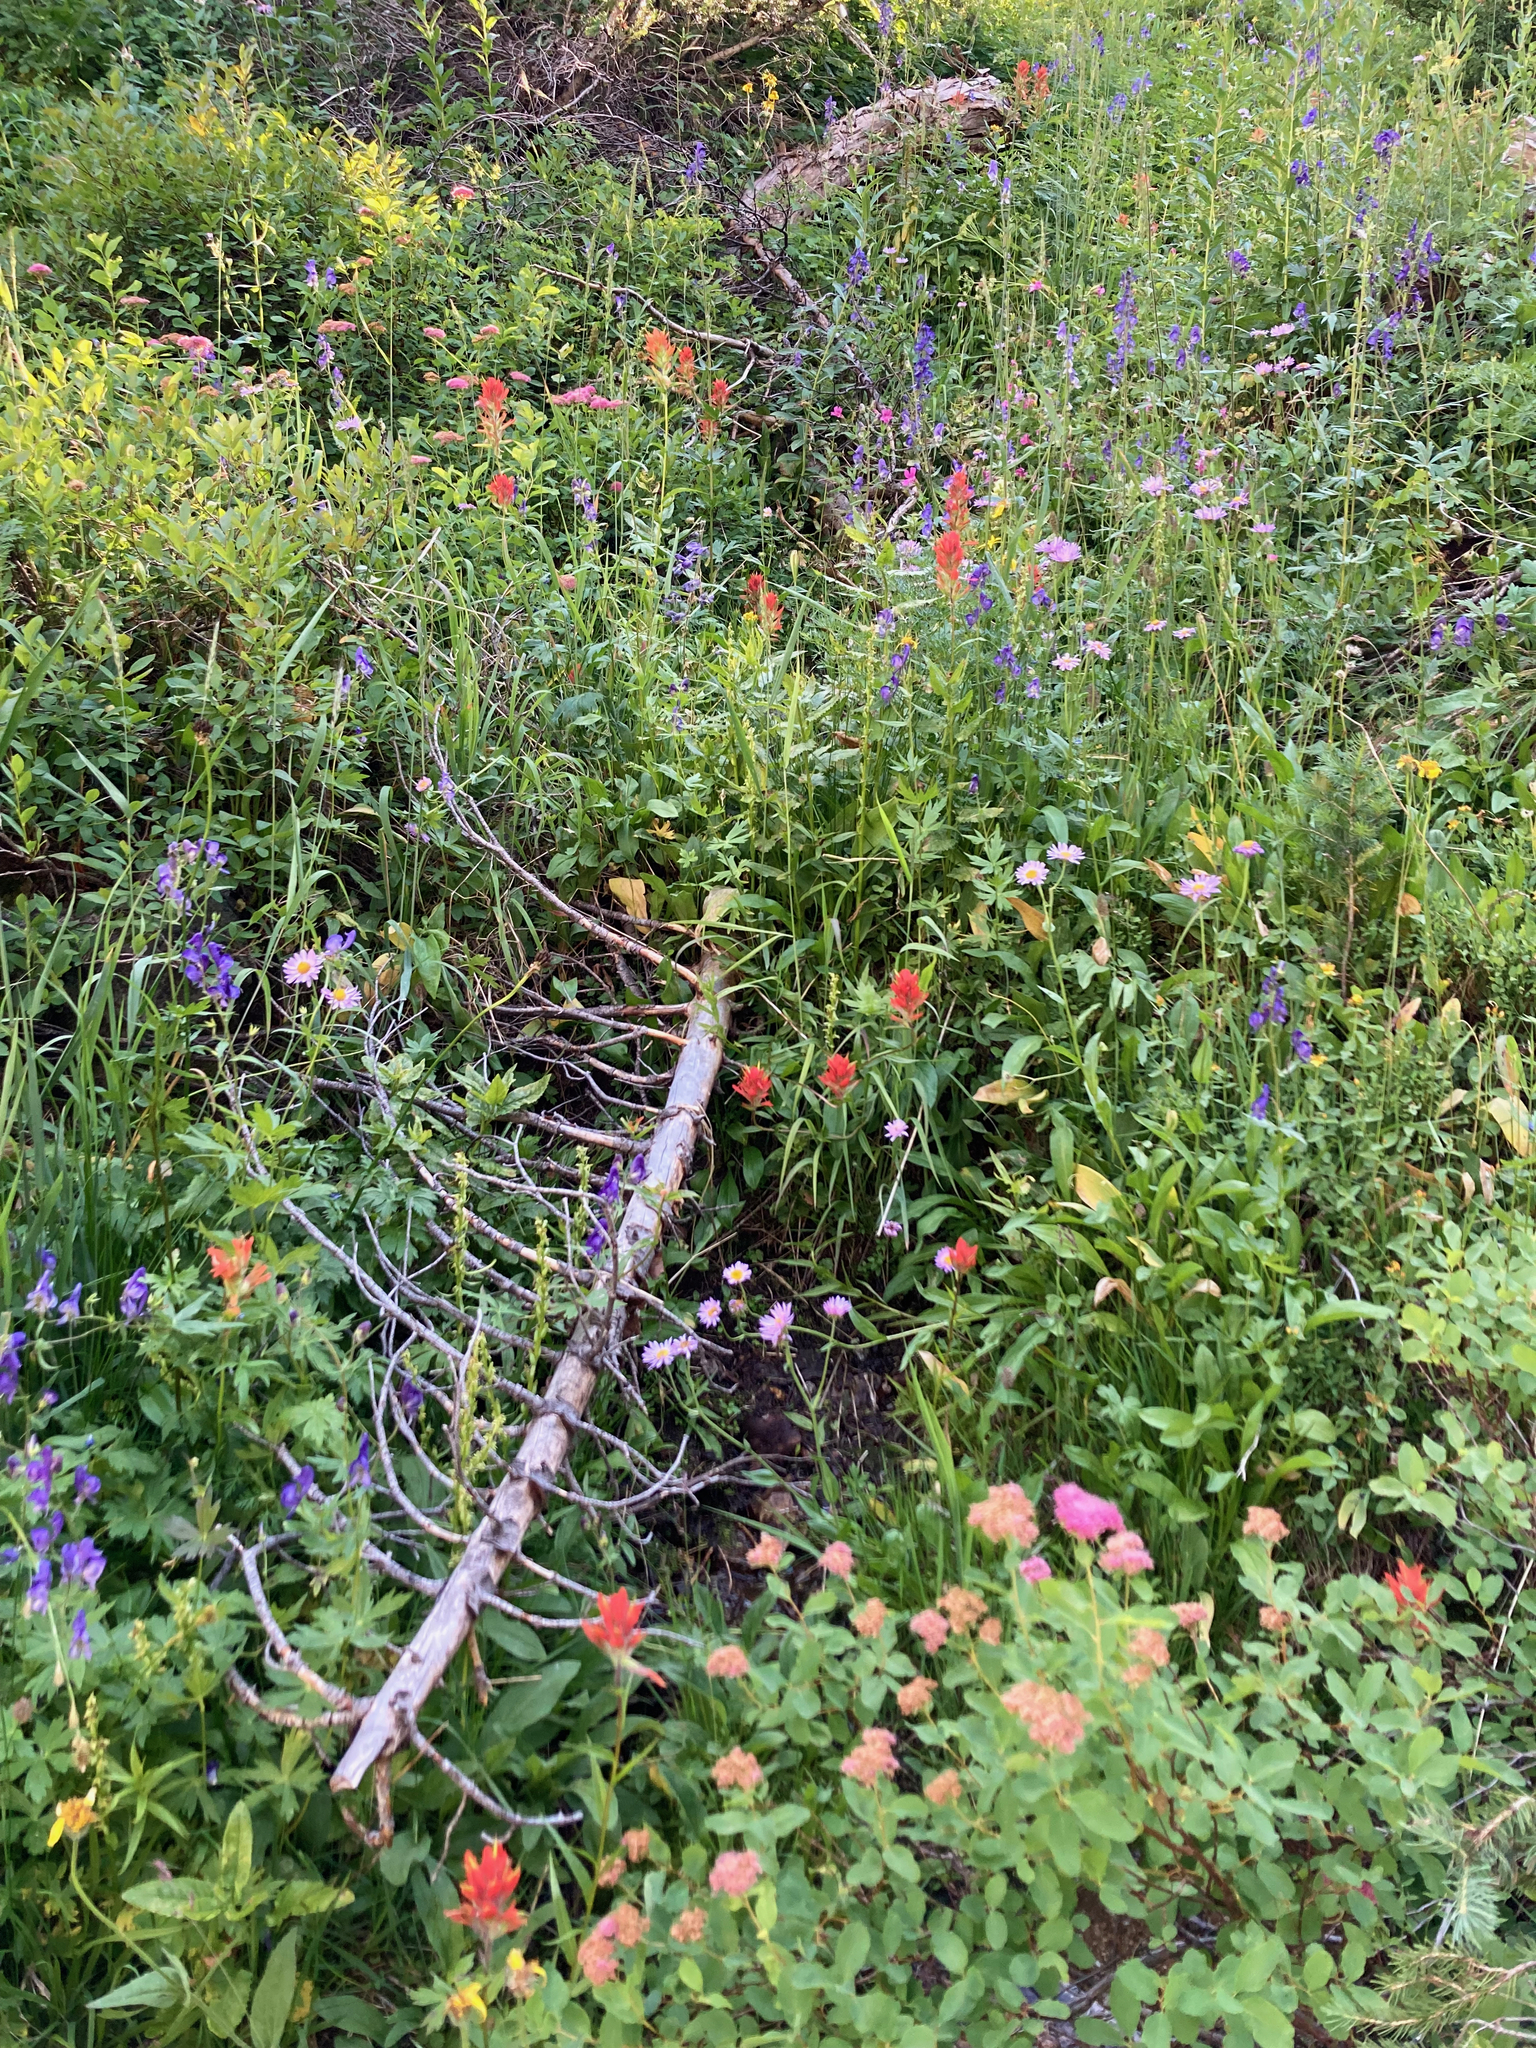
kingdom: Plantae
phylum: Tracheophyta
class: Magnoliopsida
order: Rosales
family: Rosaceae
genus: Spiraea
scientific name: Spiraea splendens
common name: Subalpine meadowsweet
